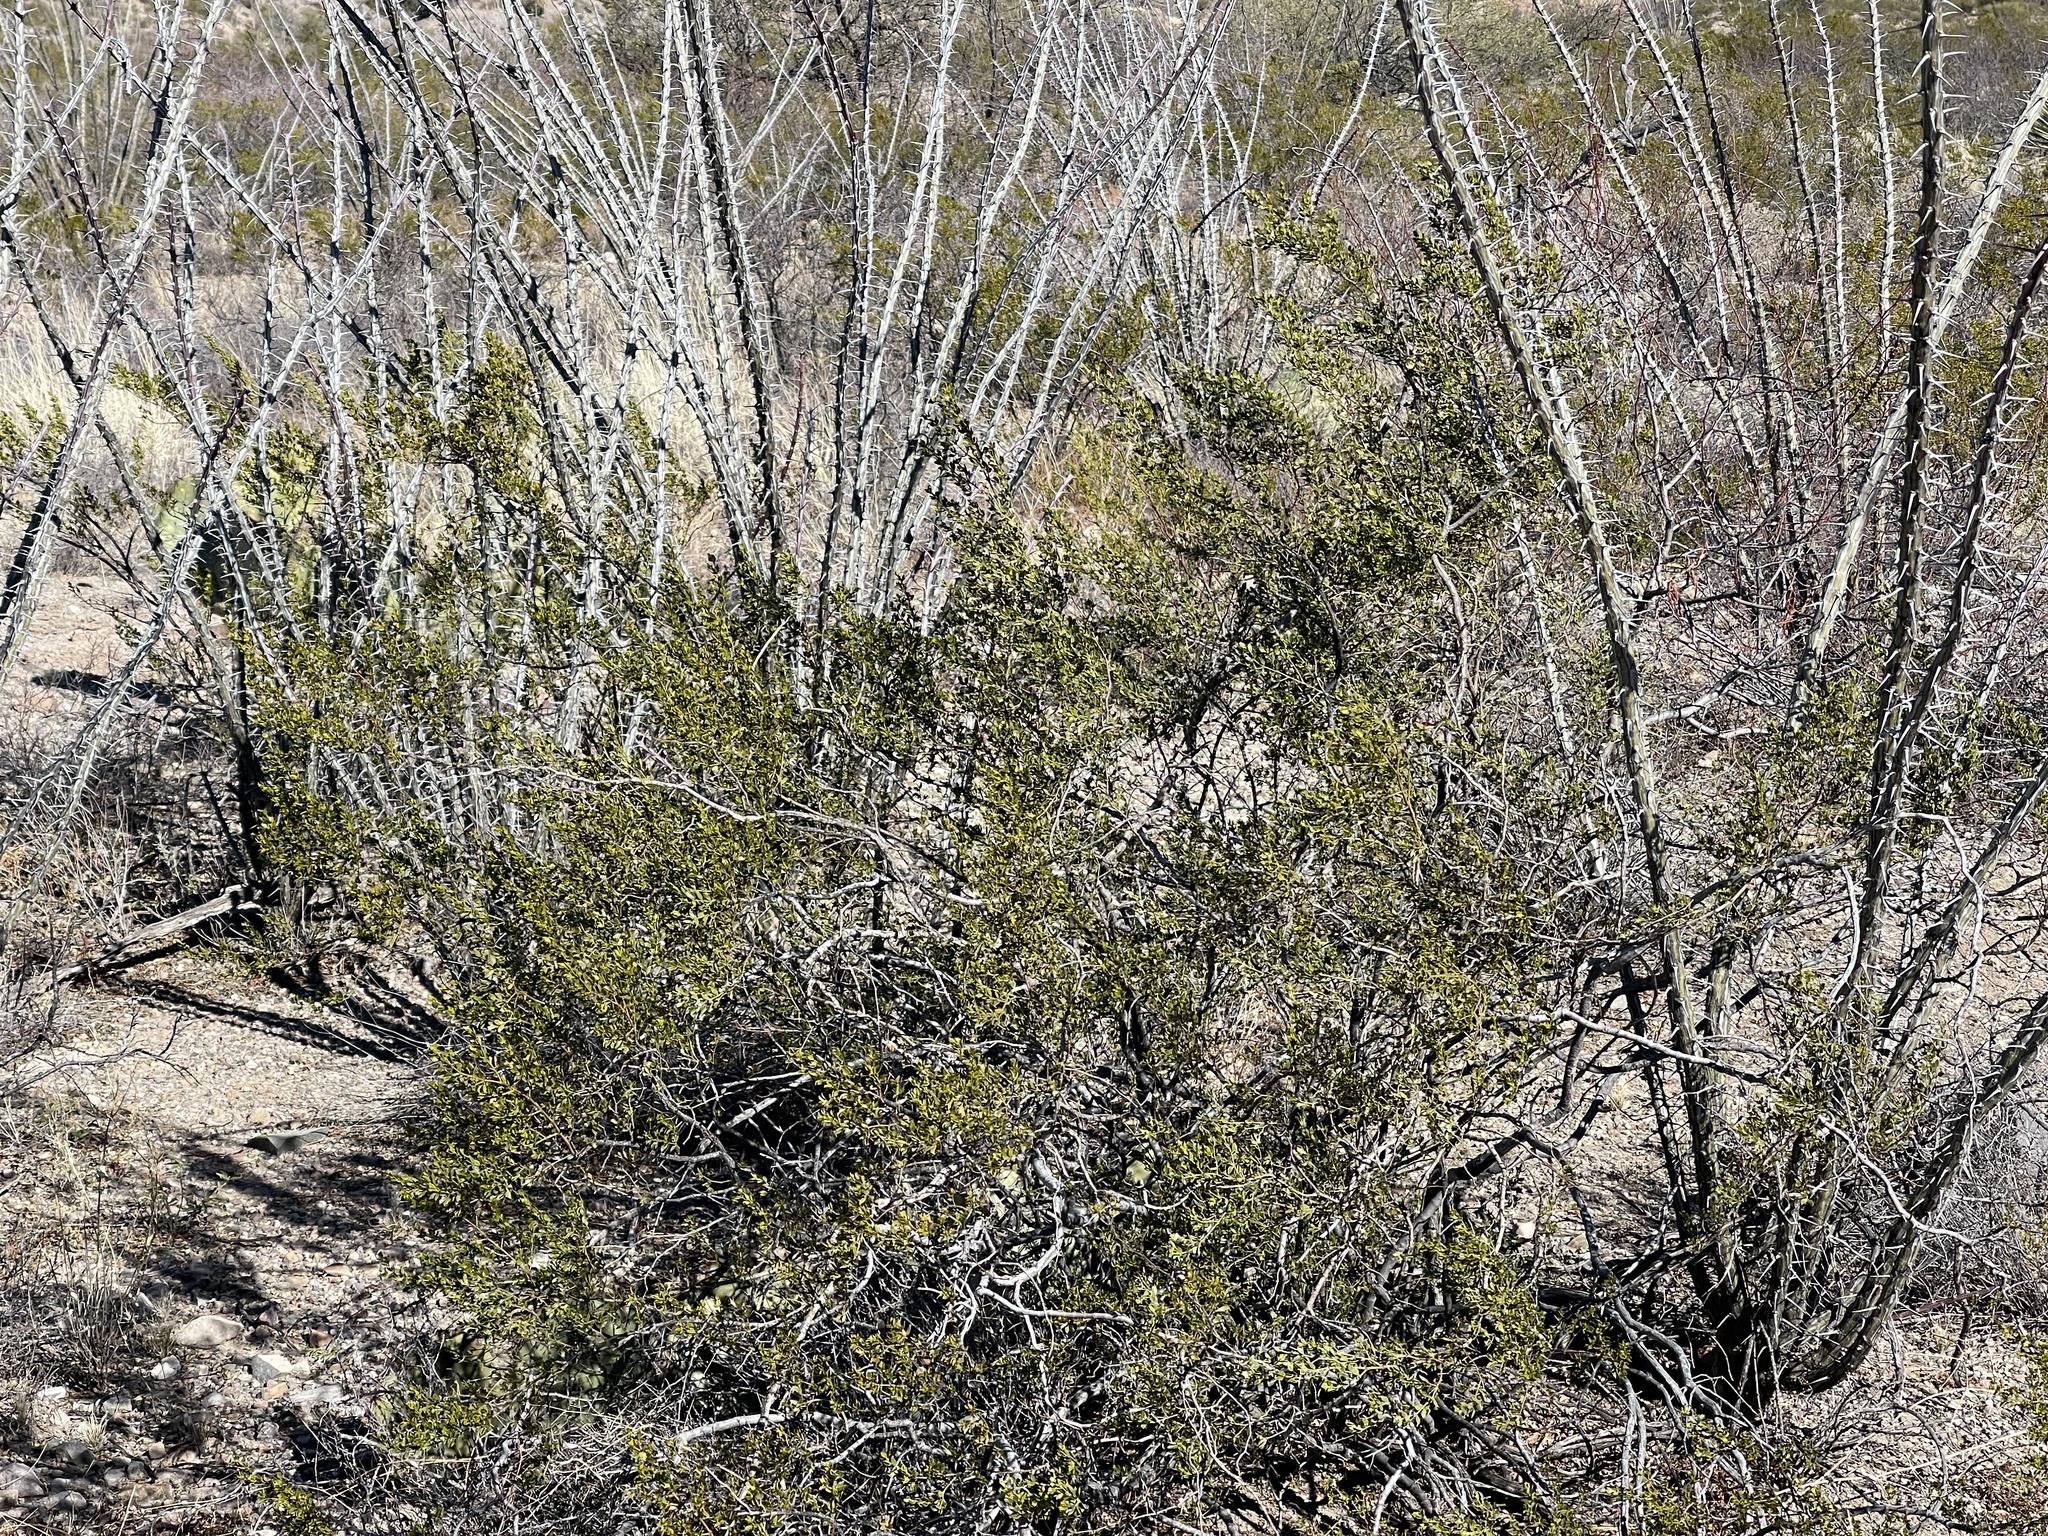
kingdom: Plantae
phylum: Tracheophyta
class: Magnoliopsida
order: Zygophyllales
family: Zygophyllaceae
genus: Larrea
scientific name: Larrea tridentata
